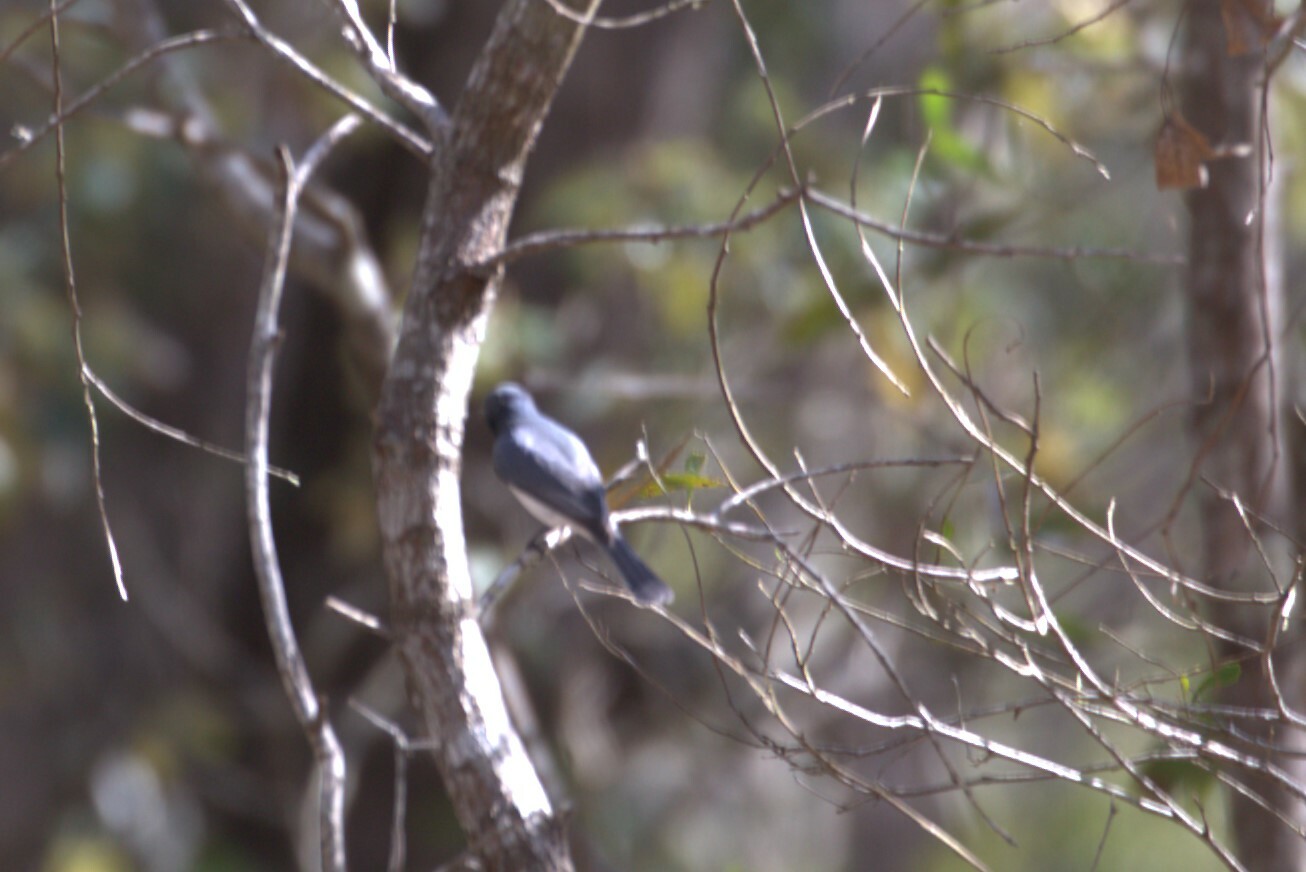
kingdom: Animalia
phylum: Chordata
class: Aves
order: Passeriformes
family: Monarchidae
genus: Myiagra
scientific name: Myiagra rubecula
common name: Leaden flycatcher
